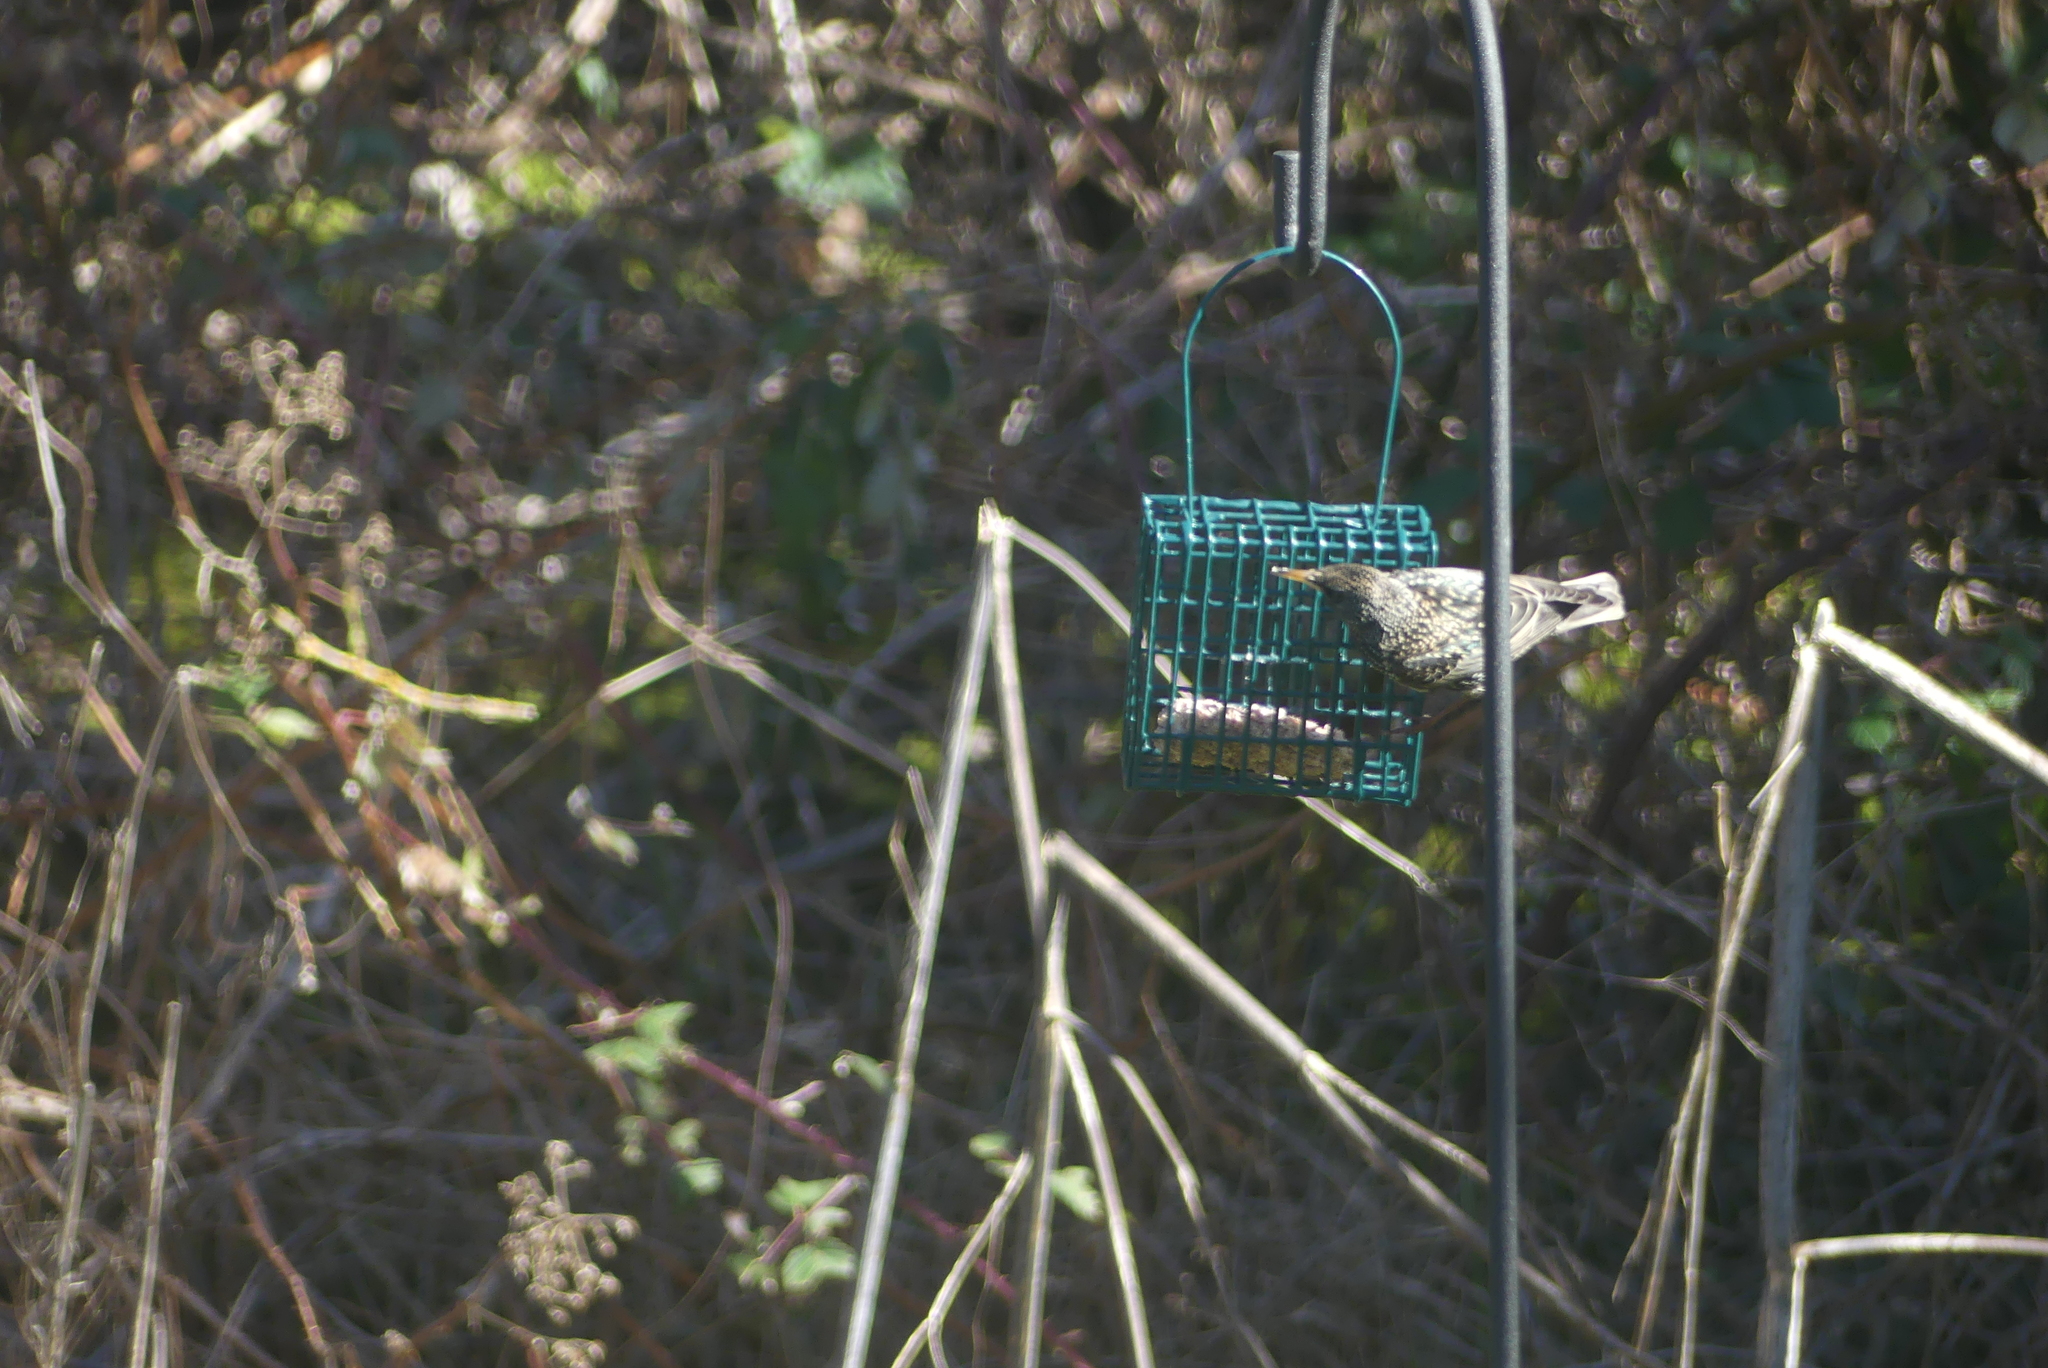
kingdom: Animalia
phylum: Chordata
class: Aves
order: Passeriformes
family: Sturnidae
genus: Sturnus
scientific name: Sturnus vulgaris
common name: Common starling
